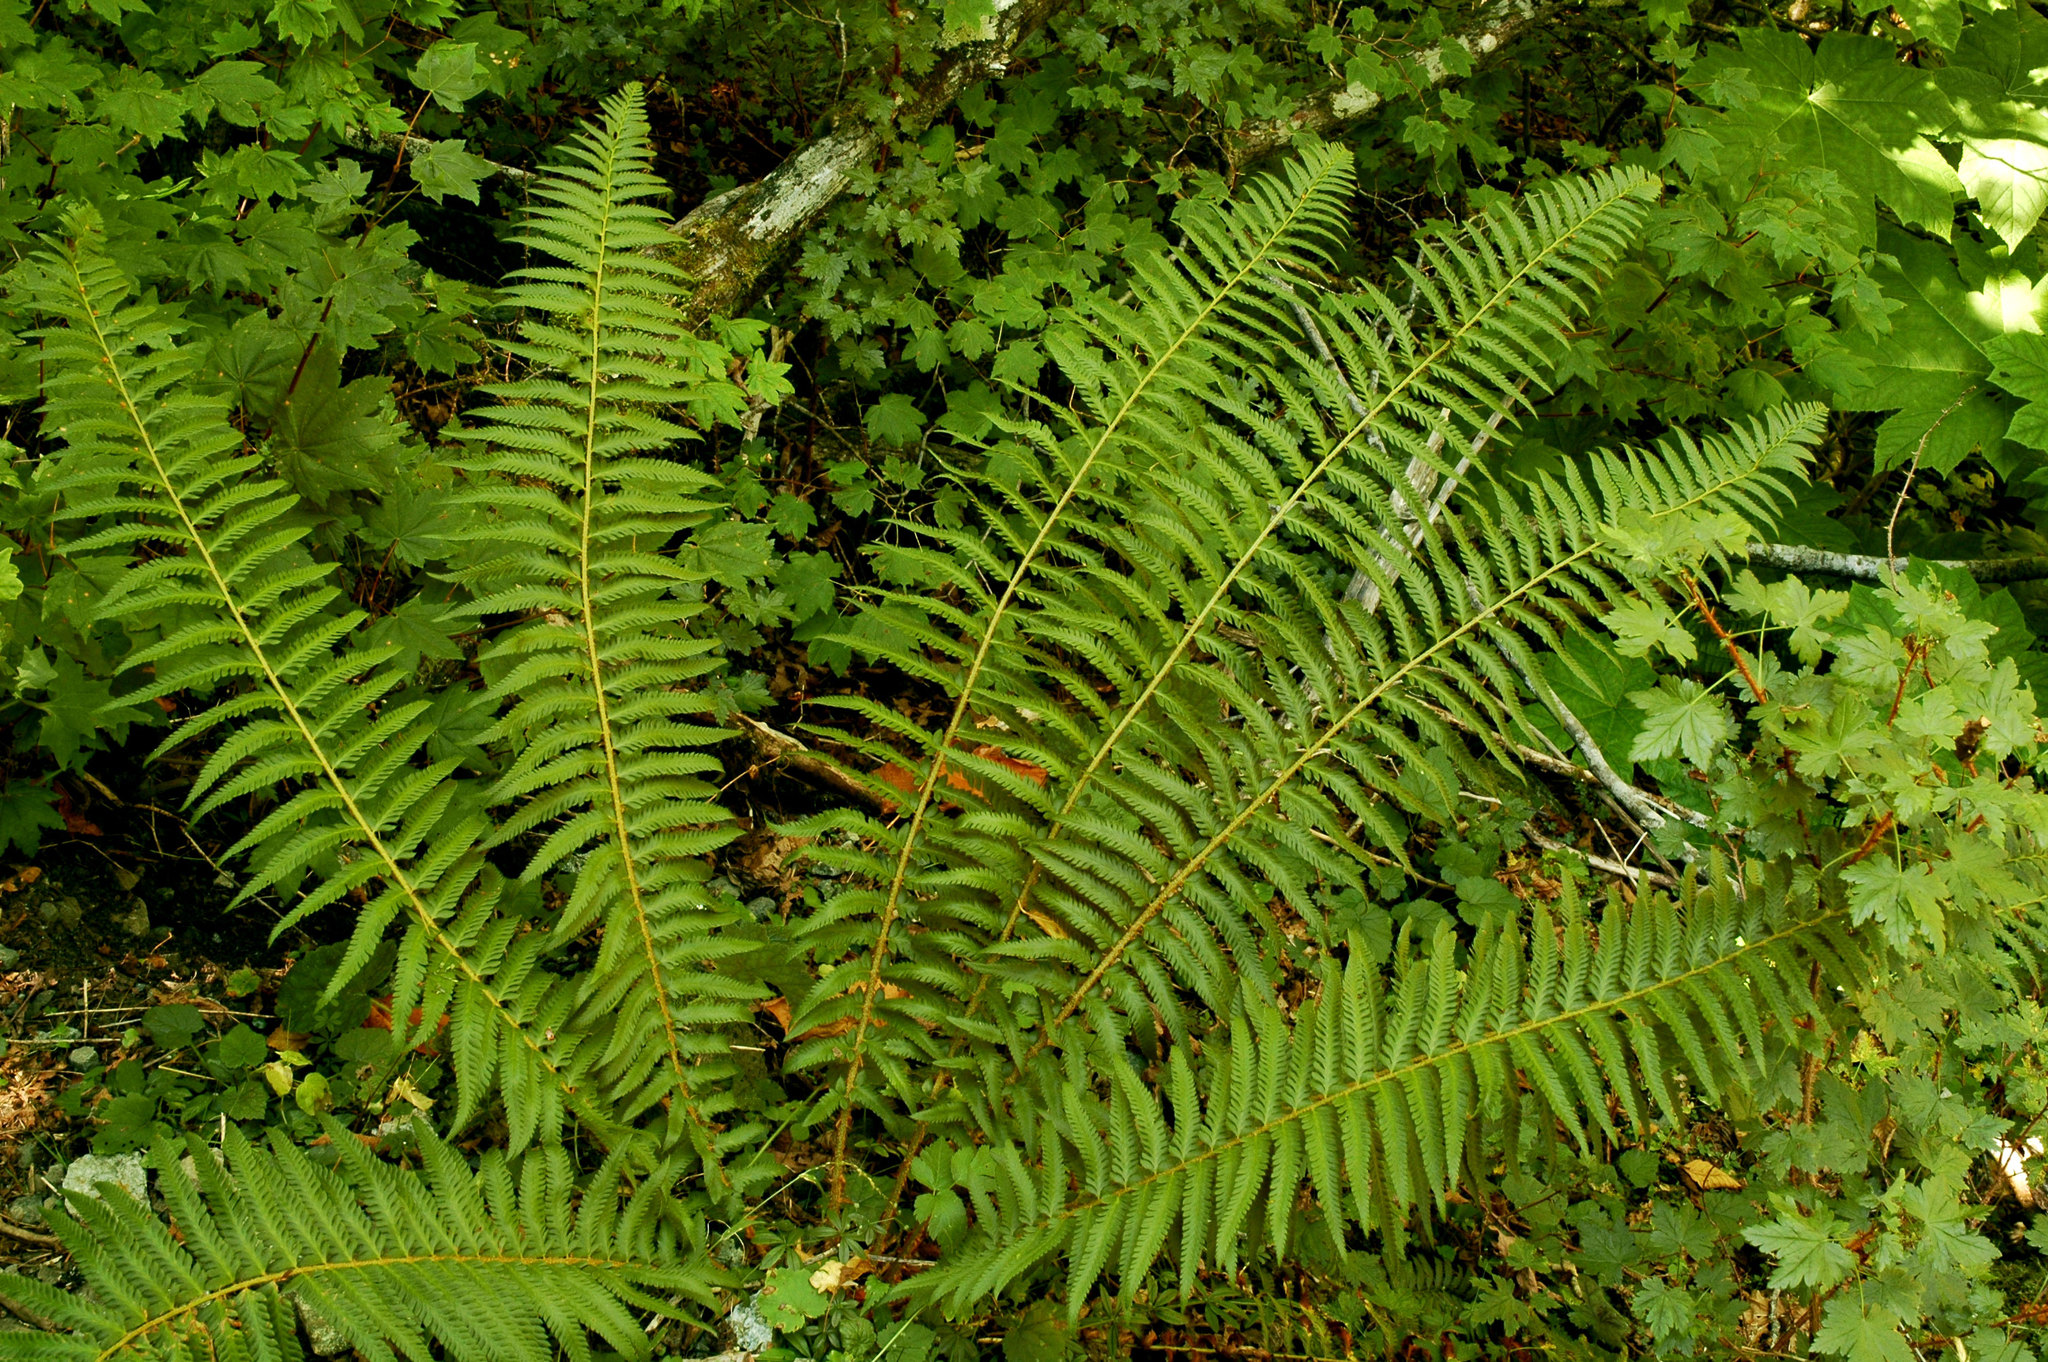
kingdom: Plantae
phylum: Tracheophyta
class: Polypodiopsida
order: Polypodiales
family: Dryopteridaceae
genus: Polystichum
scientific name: Polystichum
